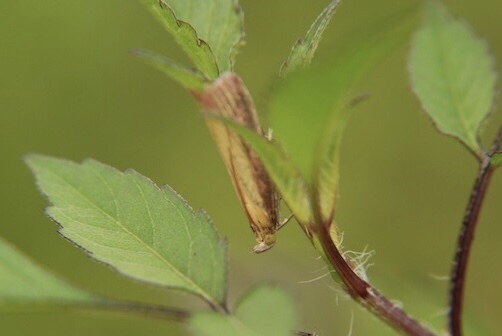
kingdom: Animalia
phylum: Arthropoda
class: Insecta
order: Lepidoptera
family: Pyralidae
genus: Oncocera
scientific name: Oncocera semirubella
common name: Rosy-striped knot-horn
